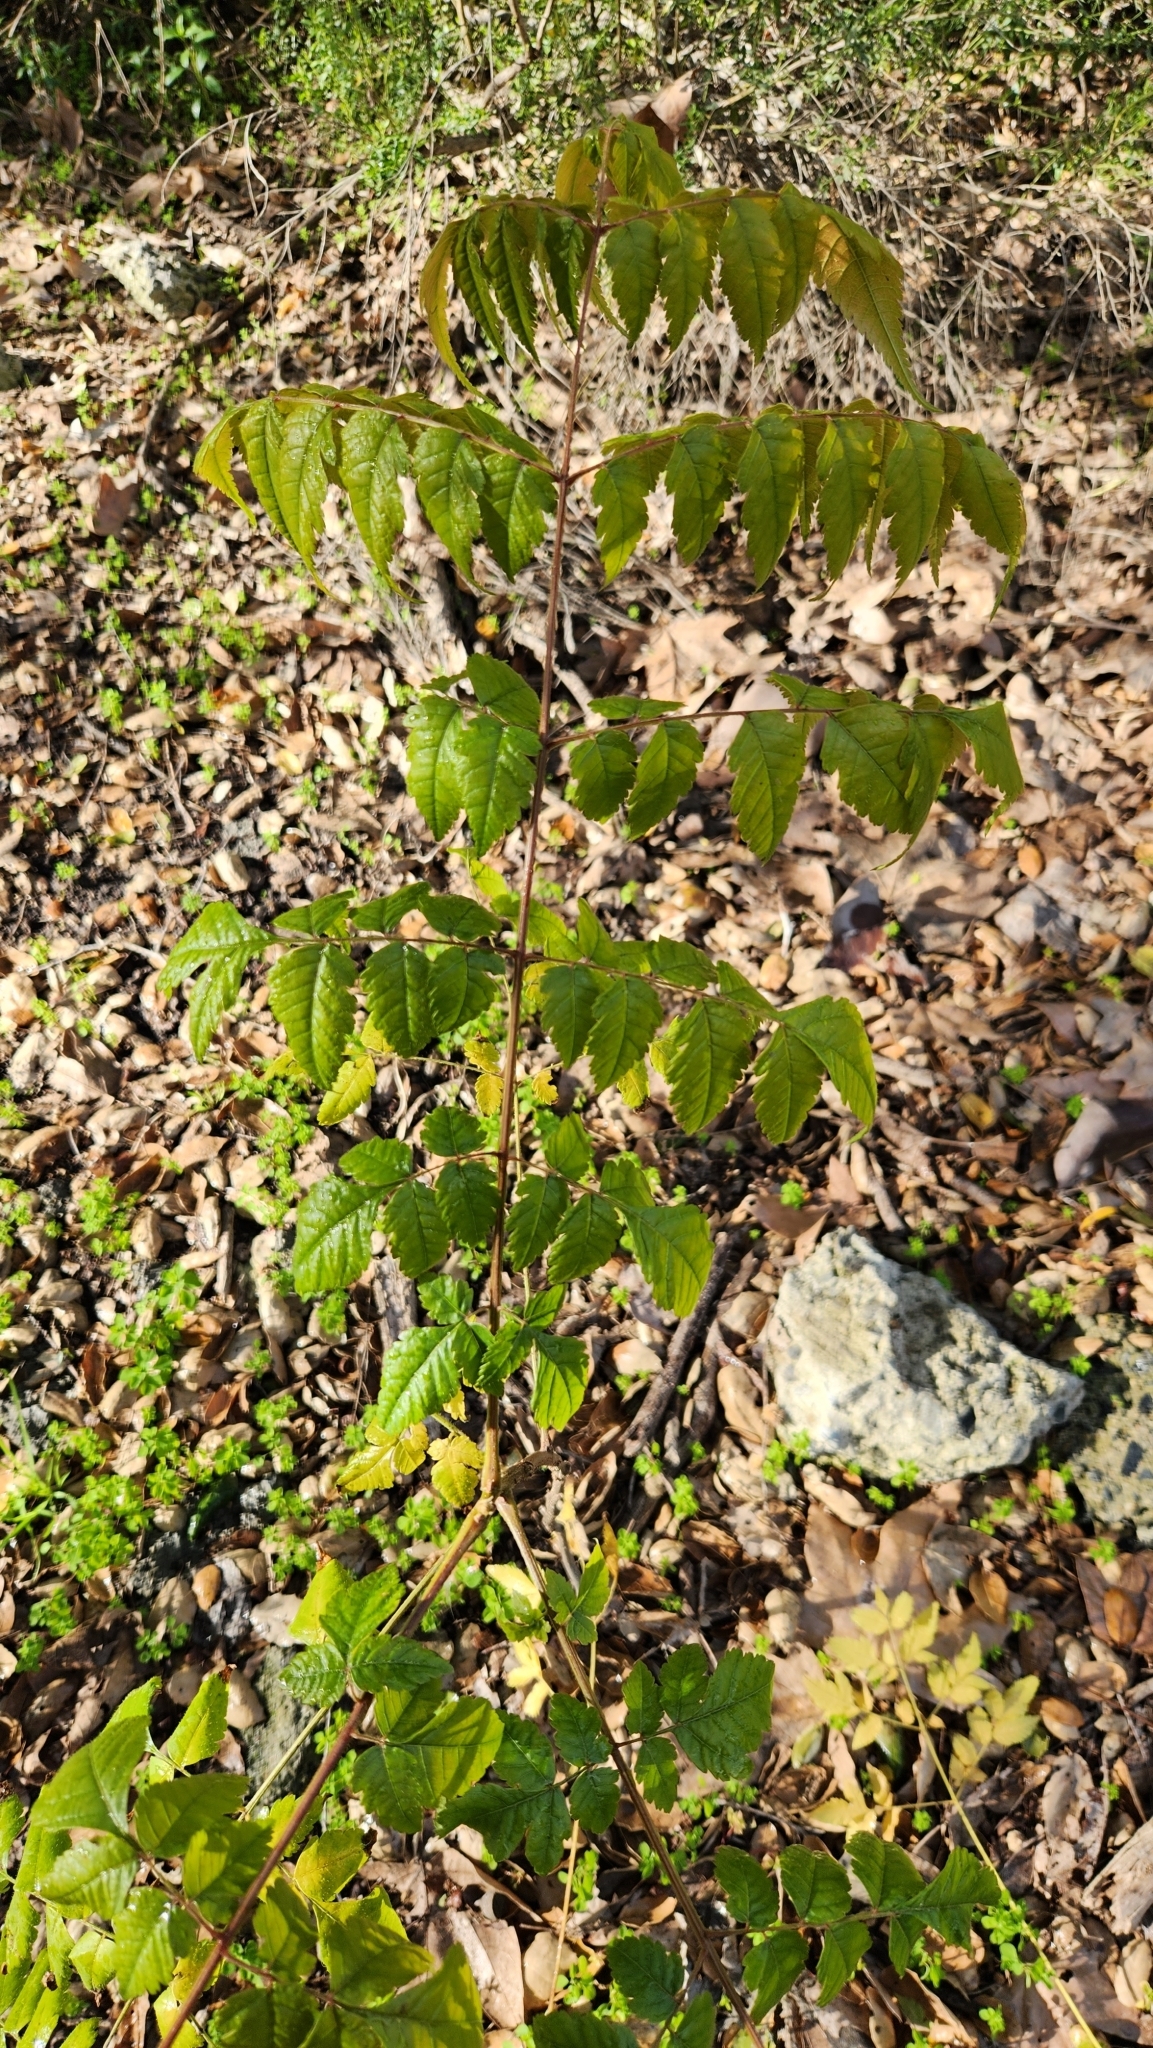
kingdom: Plantae
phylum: Tracheophyta
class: Magnoliopsida
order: Sapindales
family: Sapindaceae
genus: Koelreuteria
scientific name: Koelreuteria bipinnata
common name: Goldenrain tree
